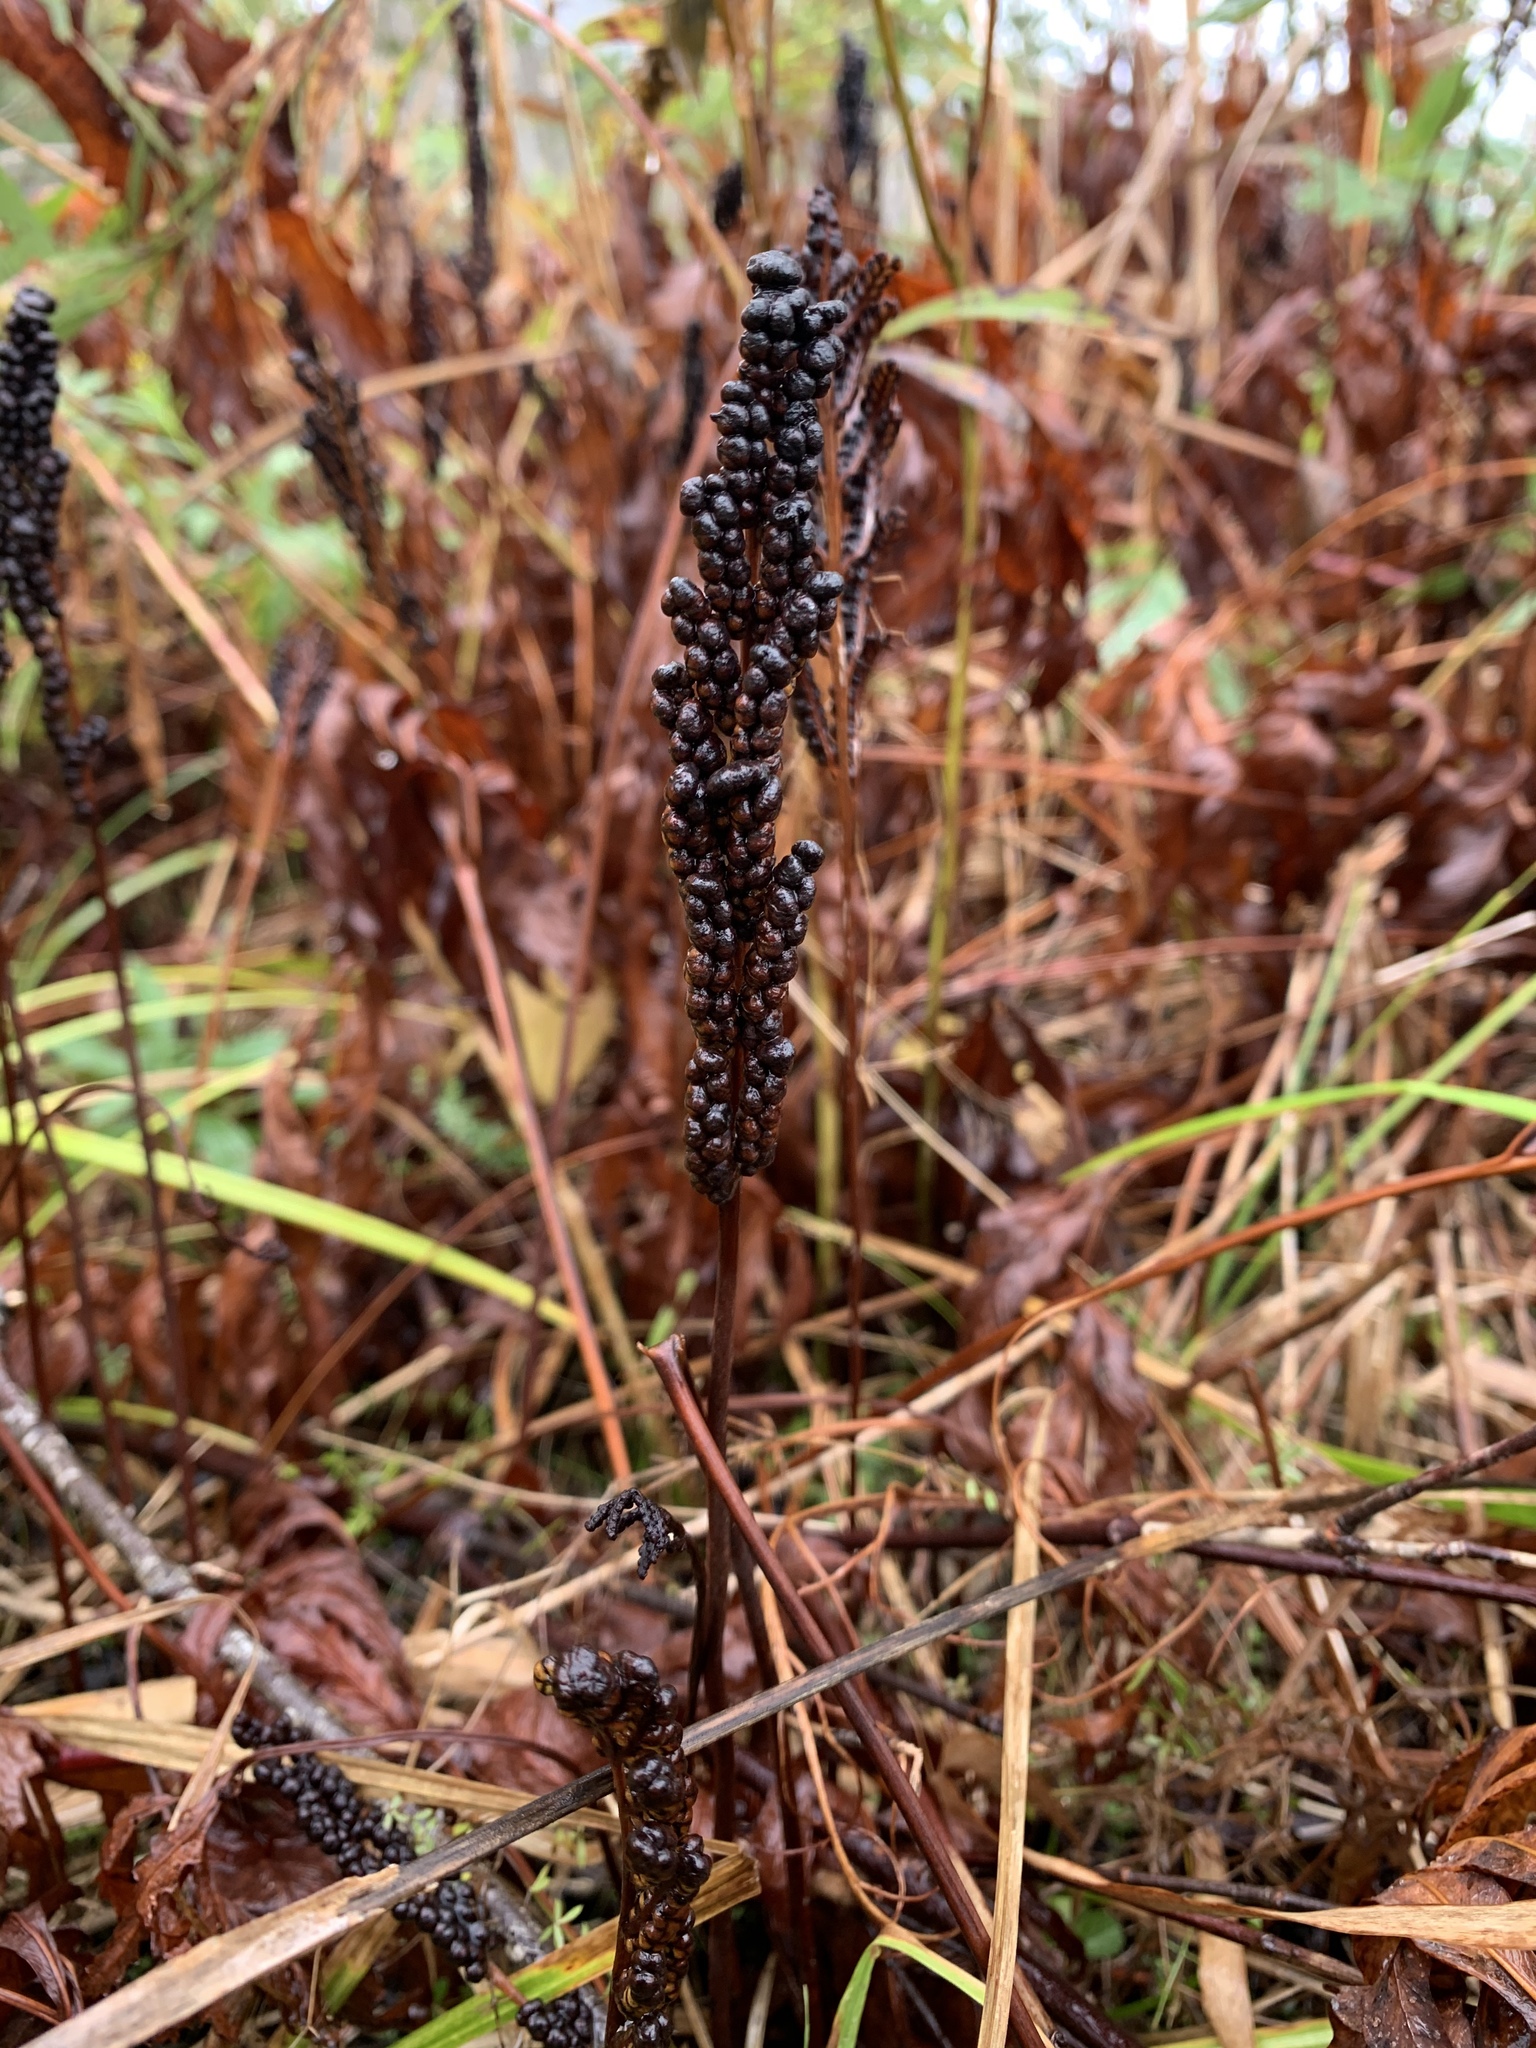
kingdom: Plantae
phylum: Tracheophyta
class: Polypodiopsida
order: Polypodiales
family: Onocleaceae
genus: Onoclea
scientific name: Onoclea sensibilis
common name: Sensitive fern
